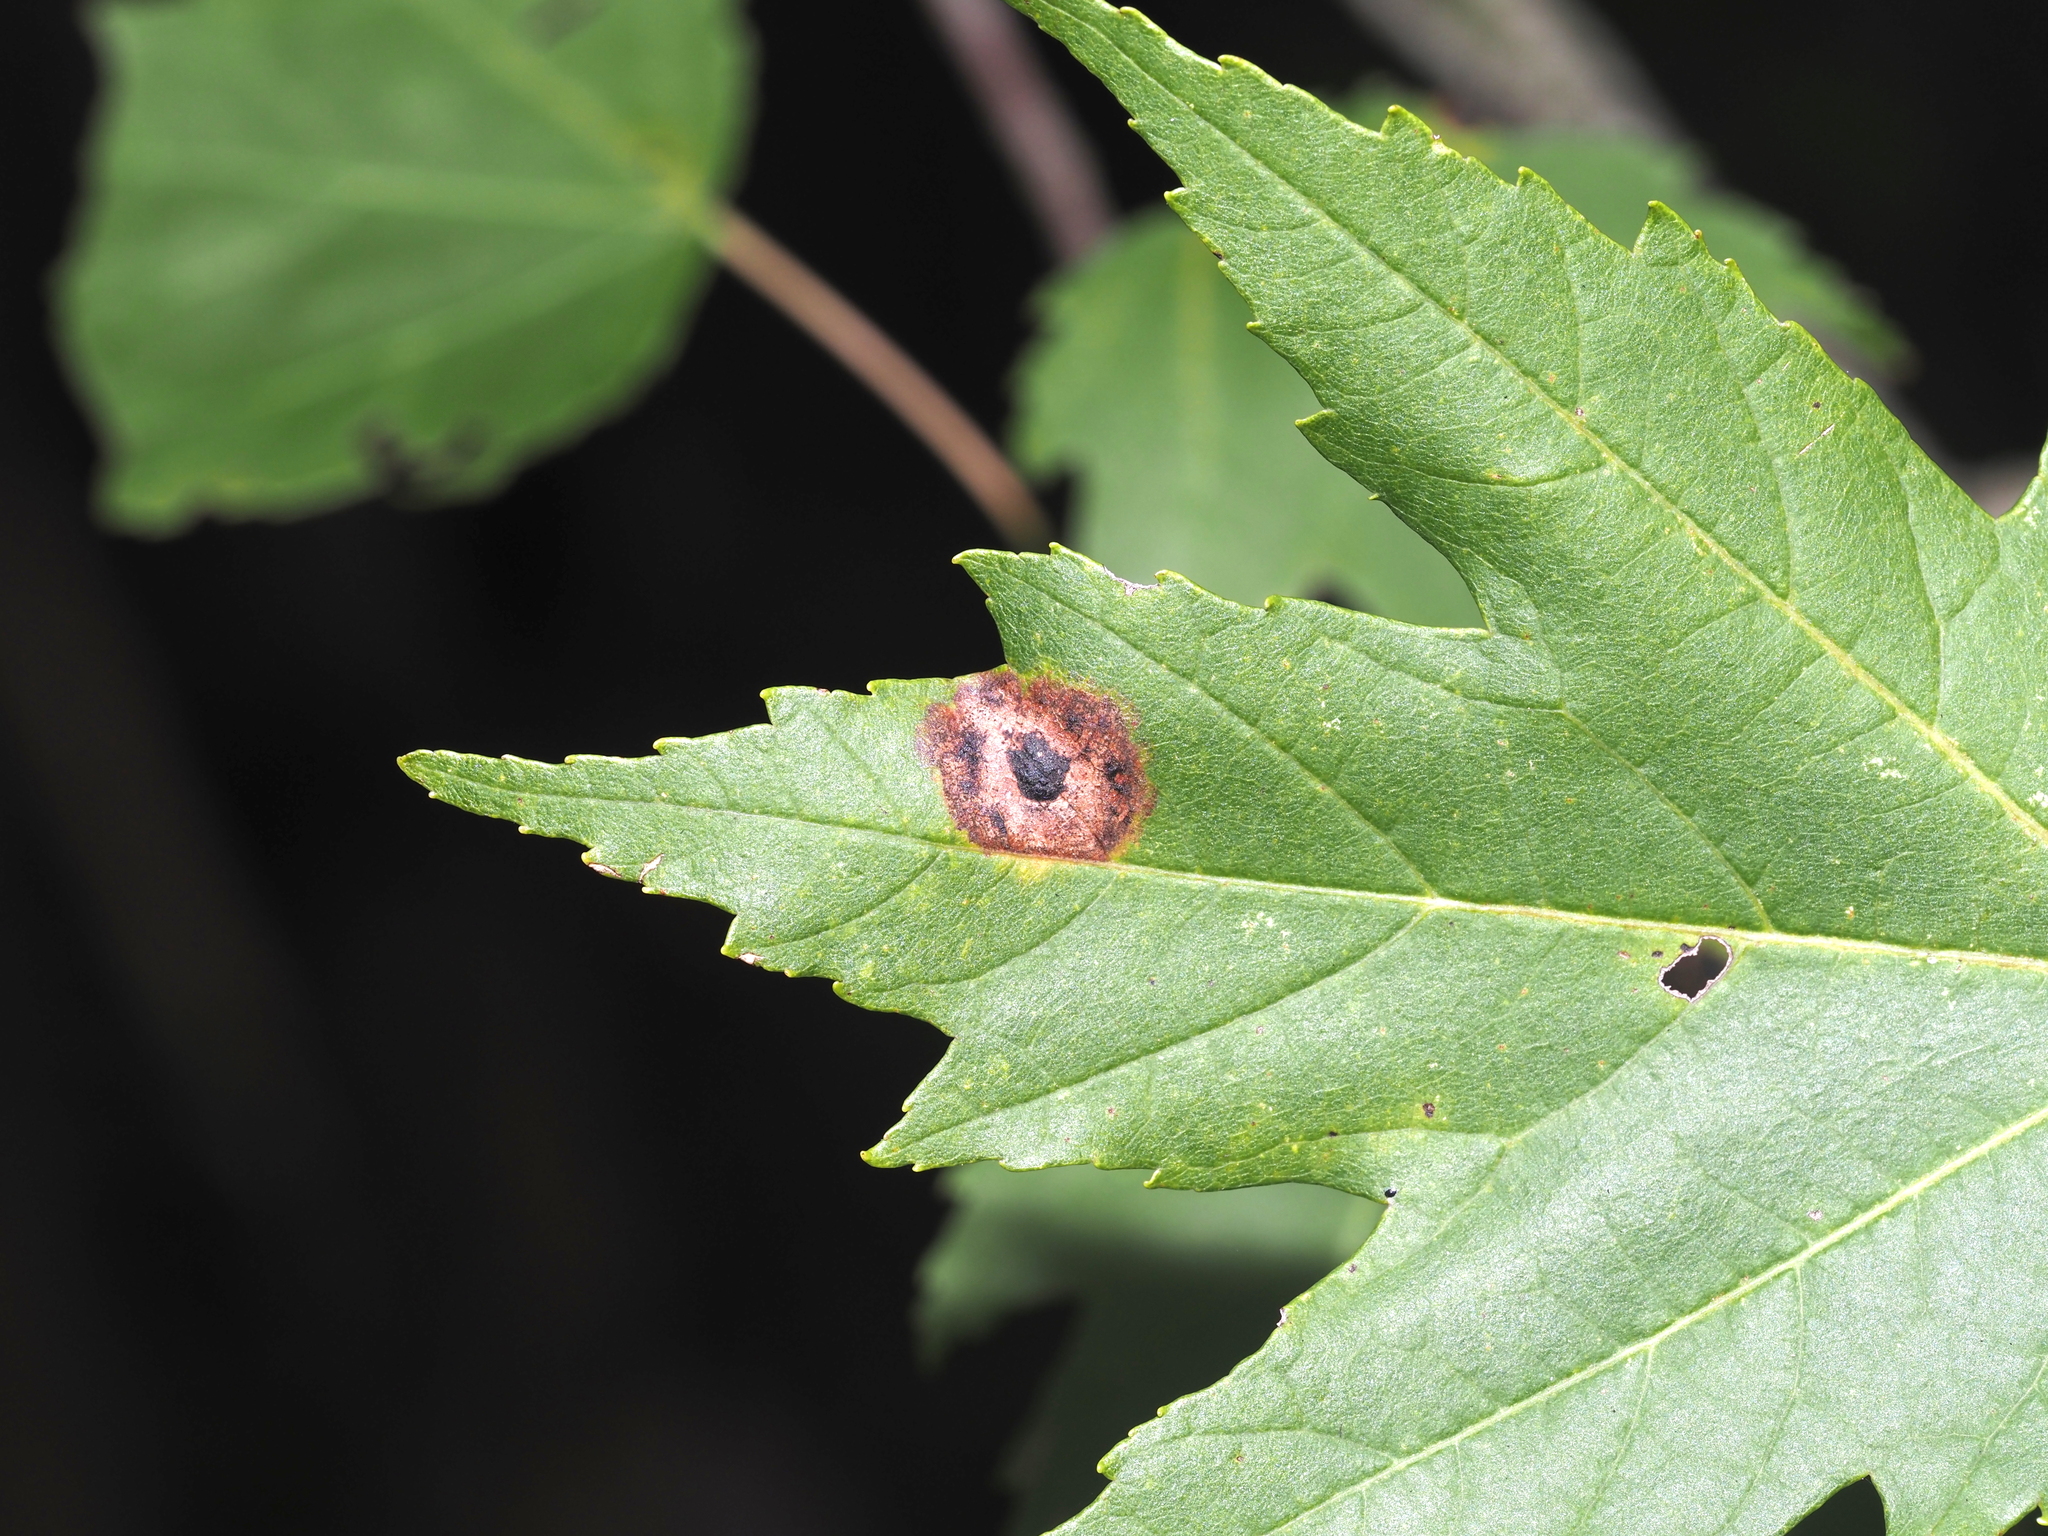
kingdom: Animalia
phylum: Arthropoda
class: Insecta
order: Diptera
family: Cecidomyiidae
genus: Acericecis
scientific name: Acericecis ocellaris
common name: Ocellate gall midge
